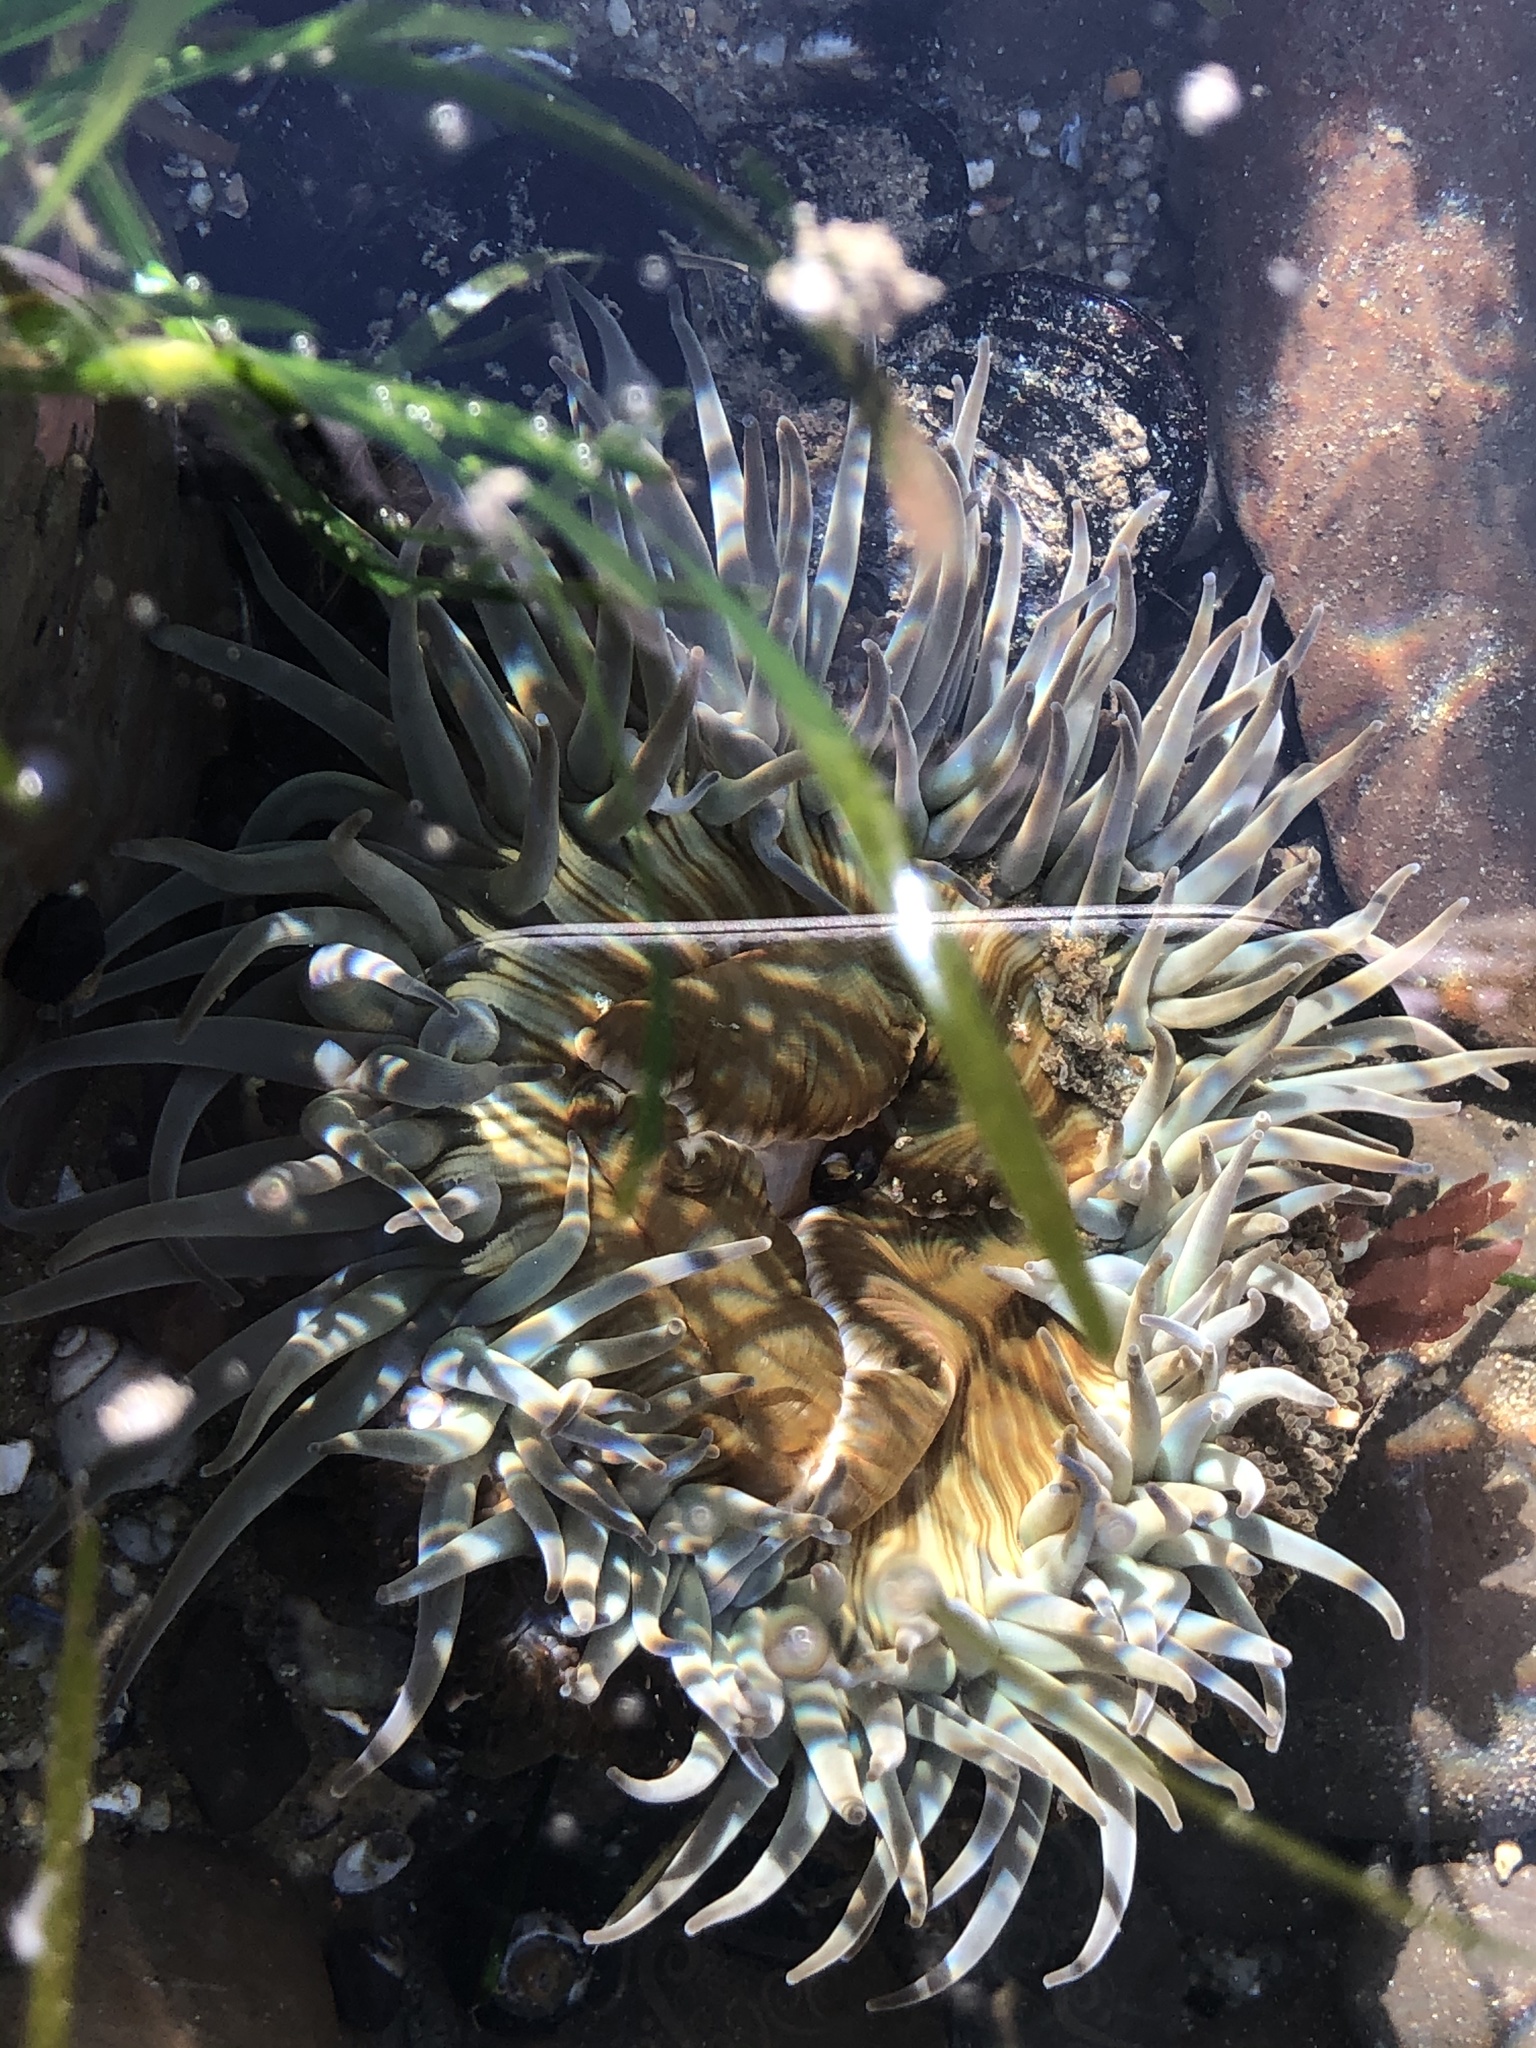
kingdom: Animalia
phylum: Cnidaria
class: Anthozoa
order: Actiniaria
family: Actiniidae
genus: Anthopleura
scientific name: Anthopleura sola
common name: Sun anemone
